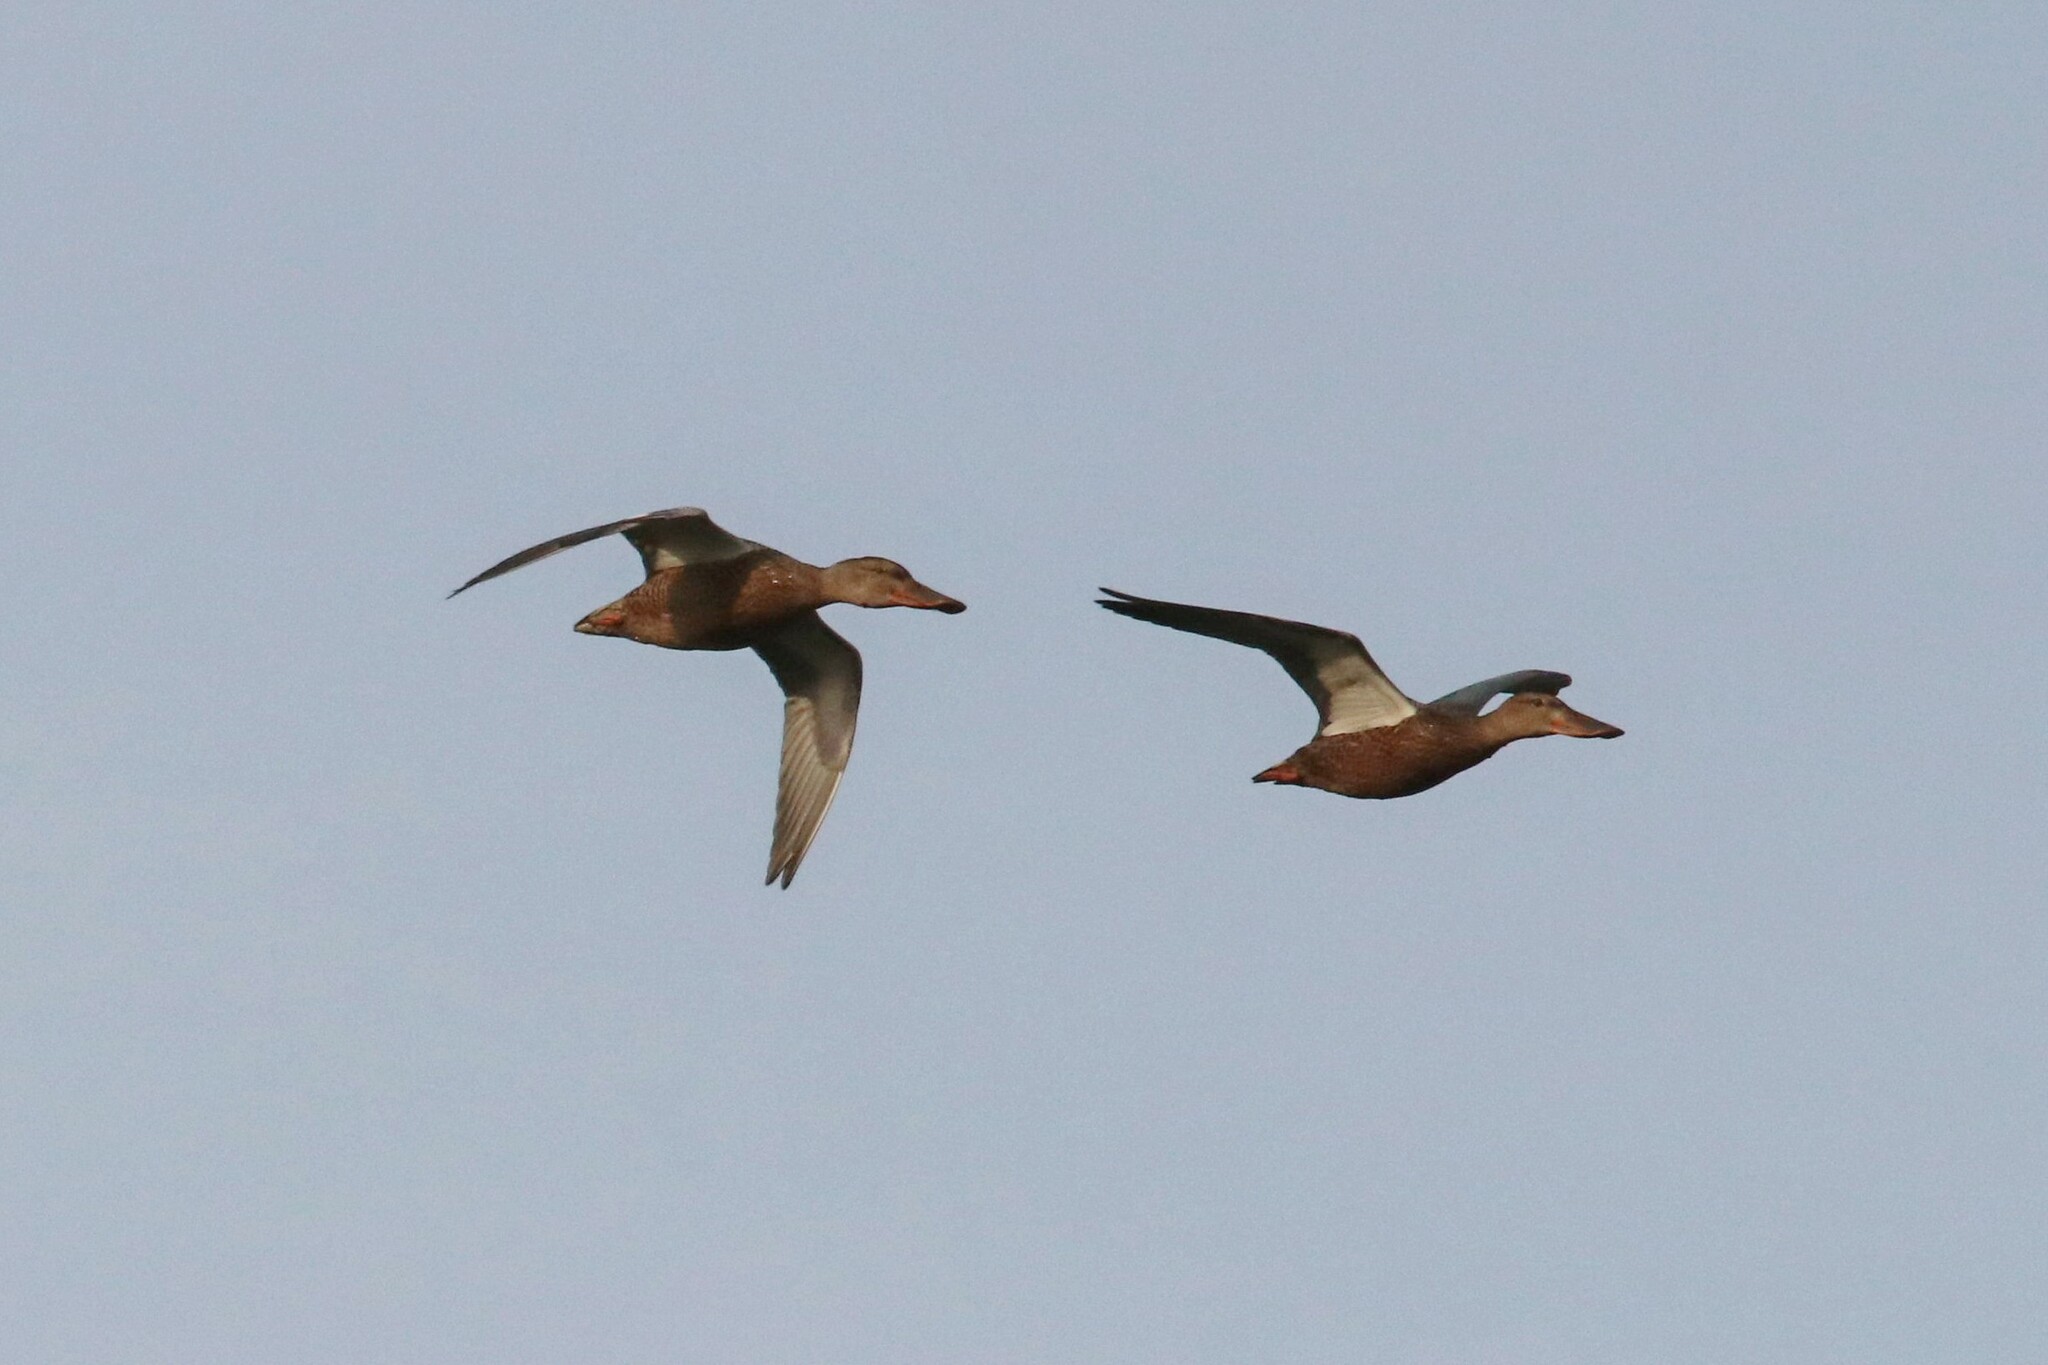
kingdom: Animalia
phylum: Chordata
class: Aves
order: Anseriformes
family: Anatidae
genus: Spatula
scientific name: Spatula clypeata
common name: Northern shoveler
